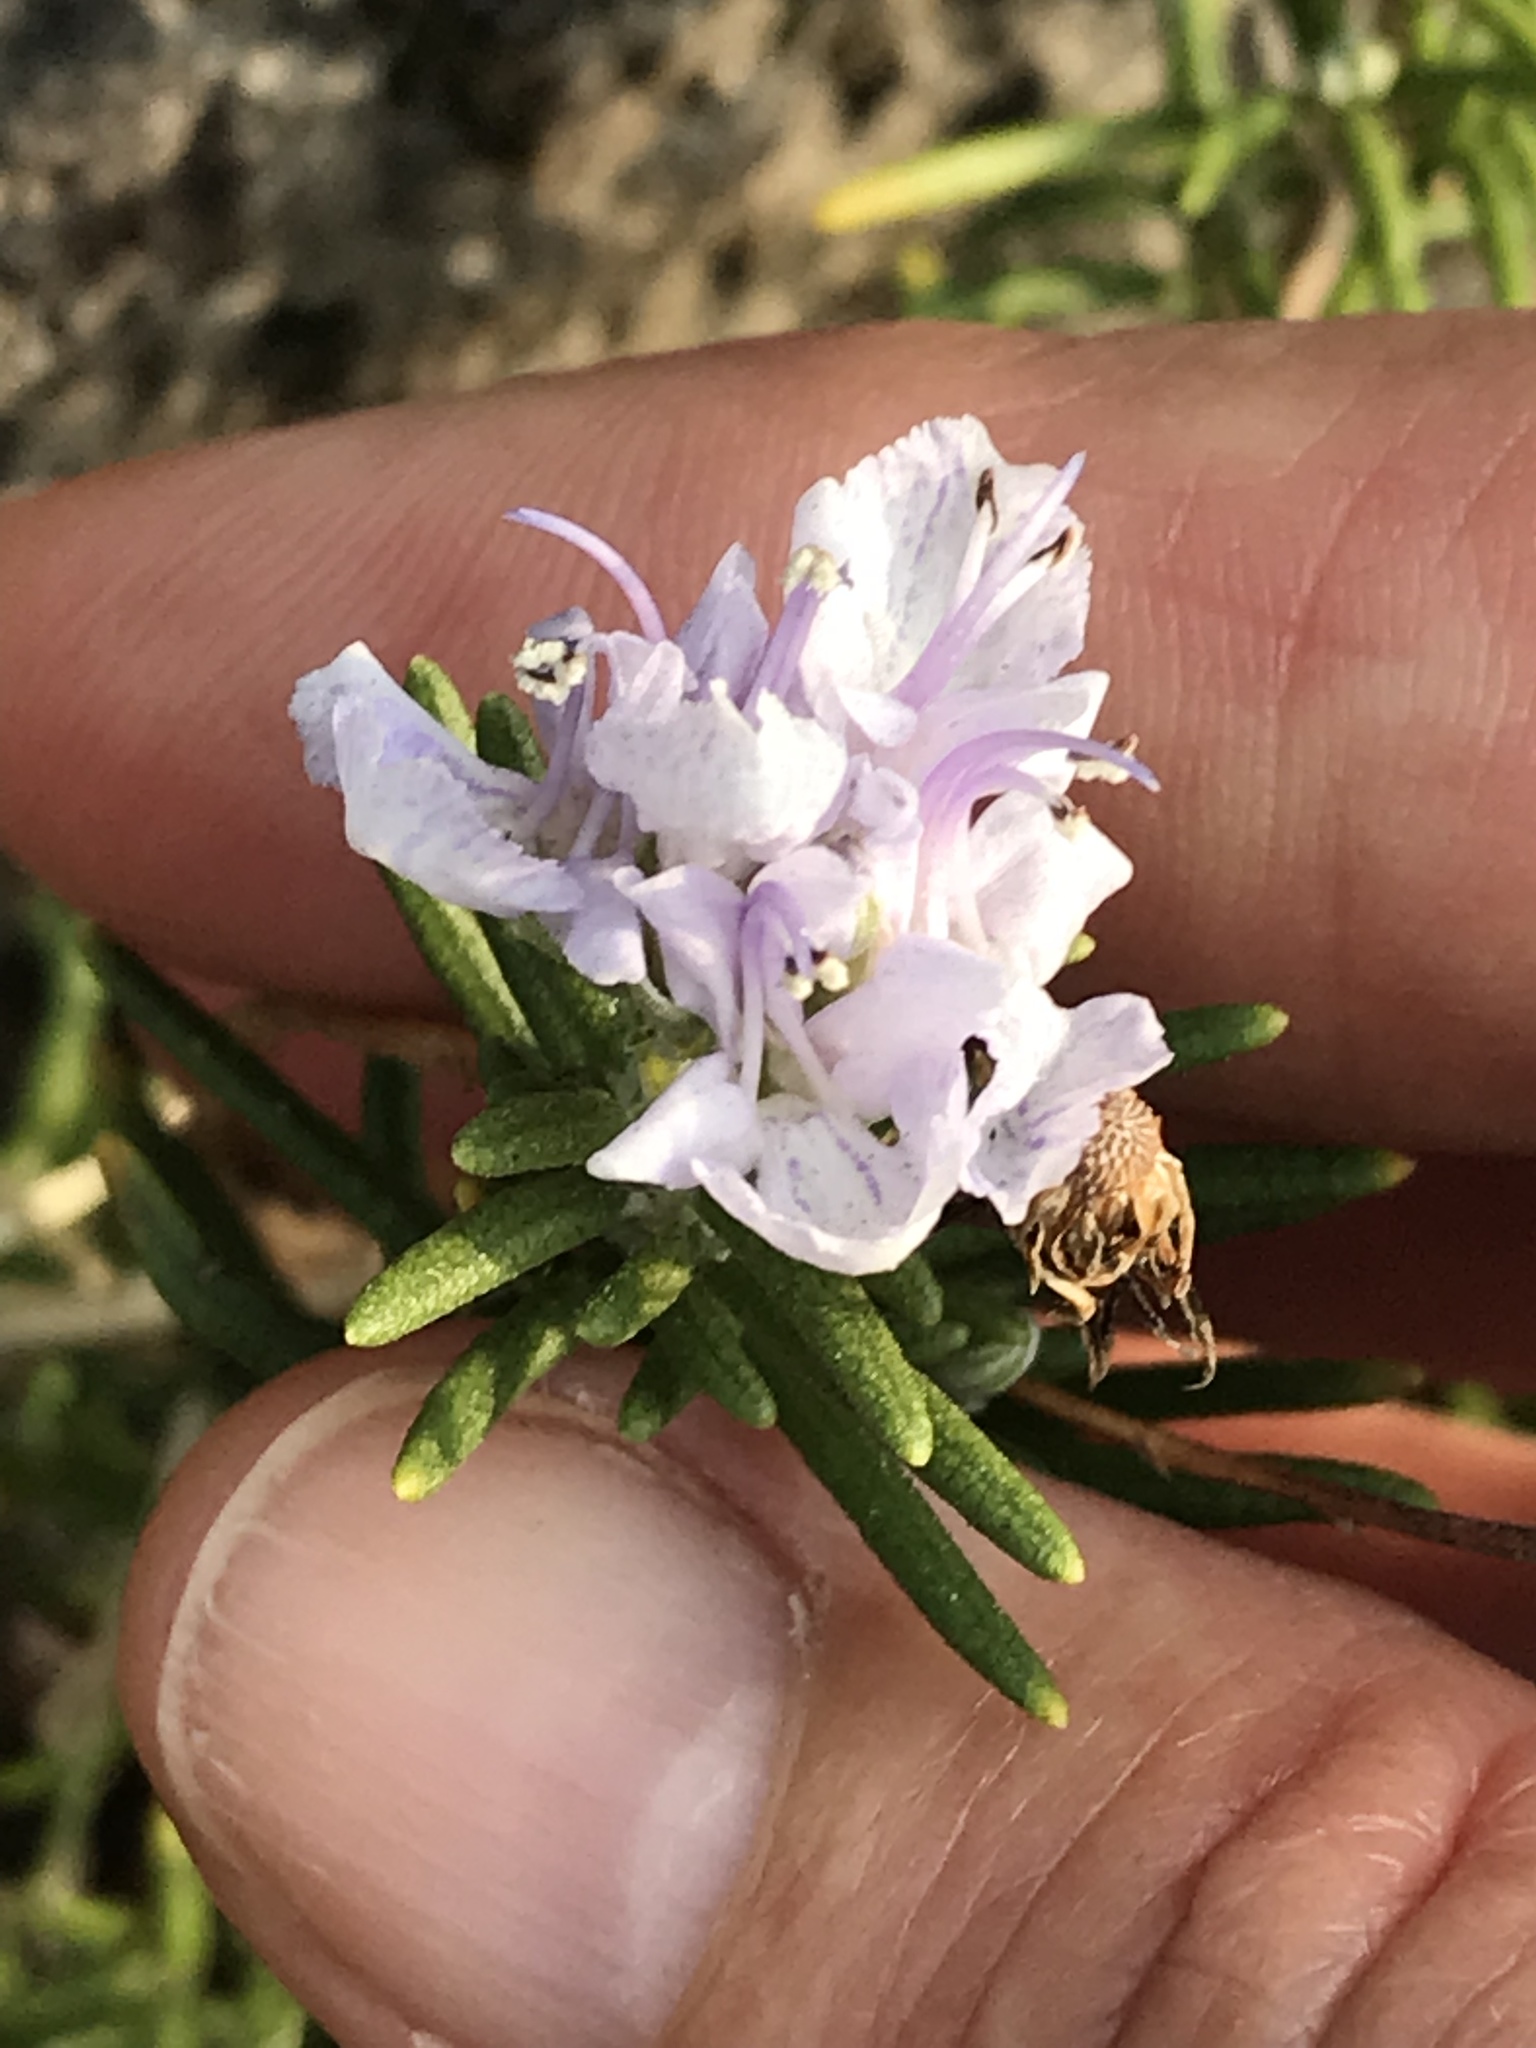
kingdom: Plantae
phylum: Tracheophyta
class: Magnoliopsida
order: Lamiales
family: Lamiaceae
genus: Salvia
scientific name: Salvia rosmarinus
